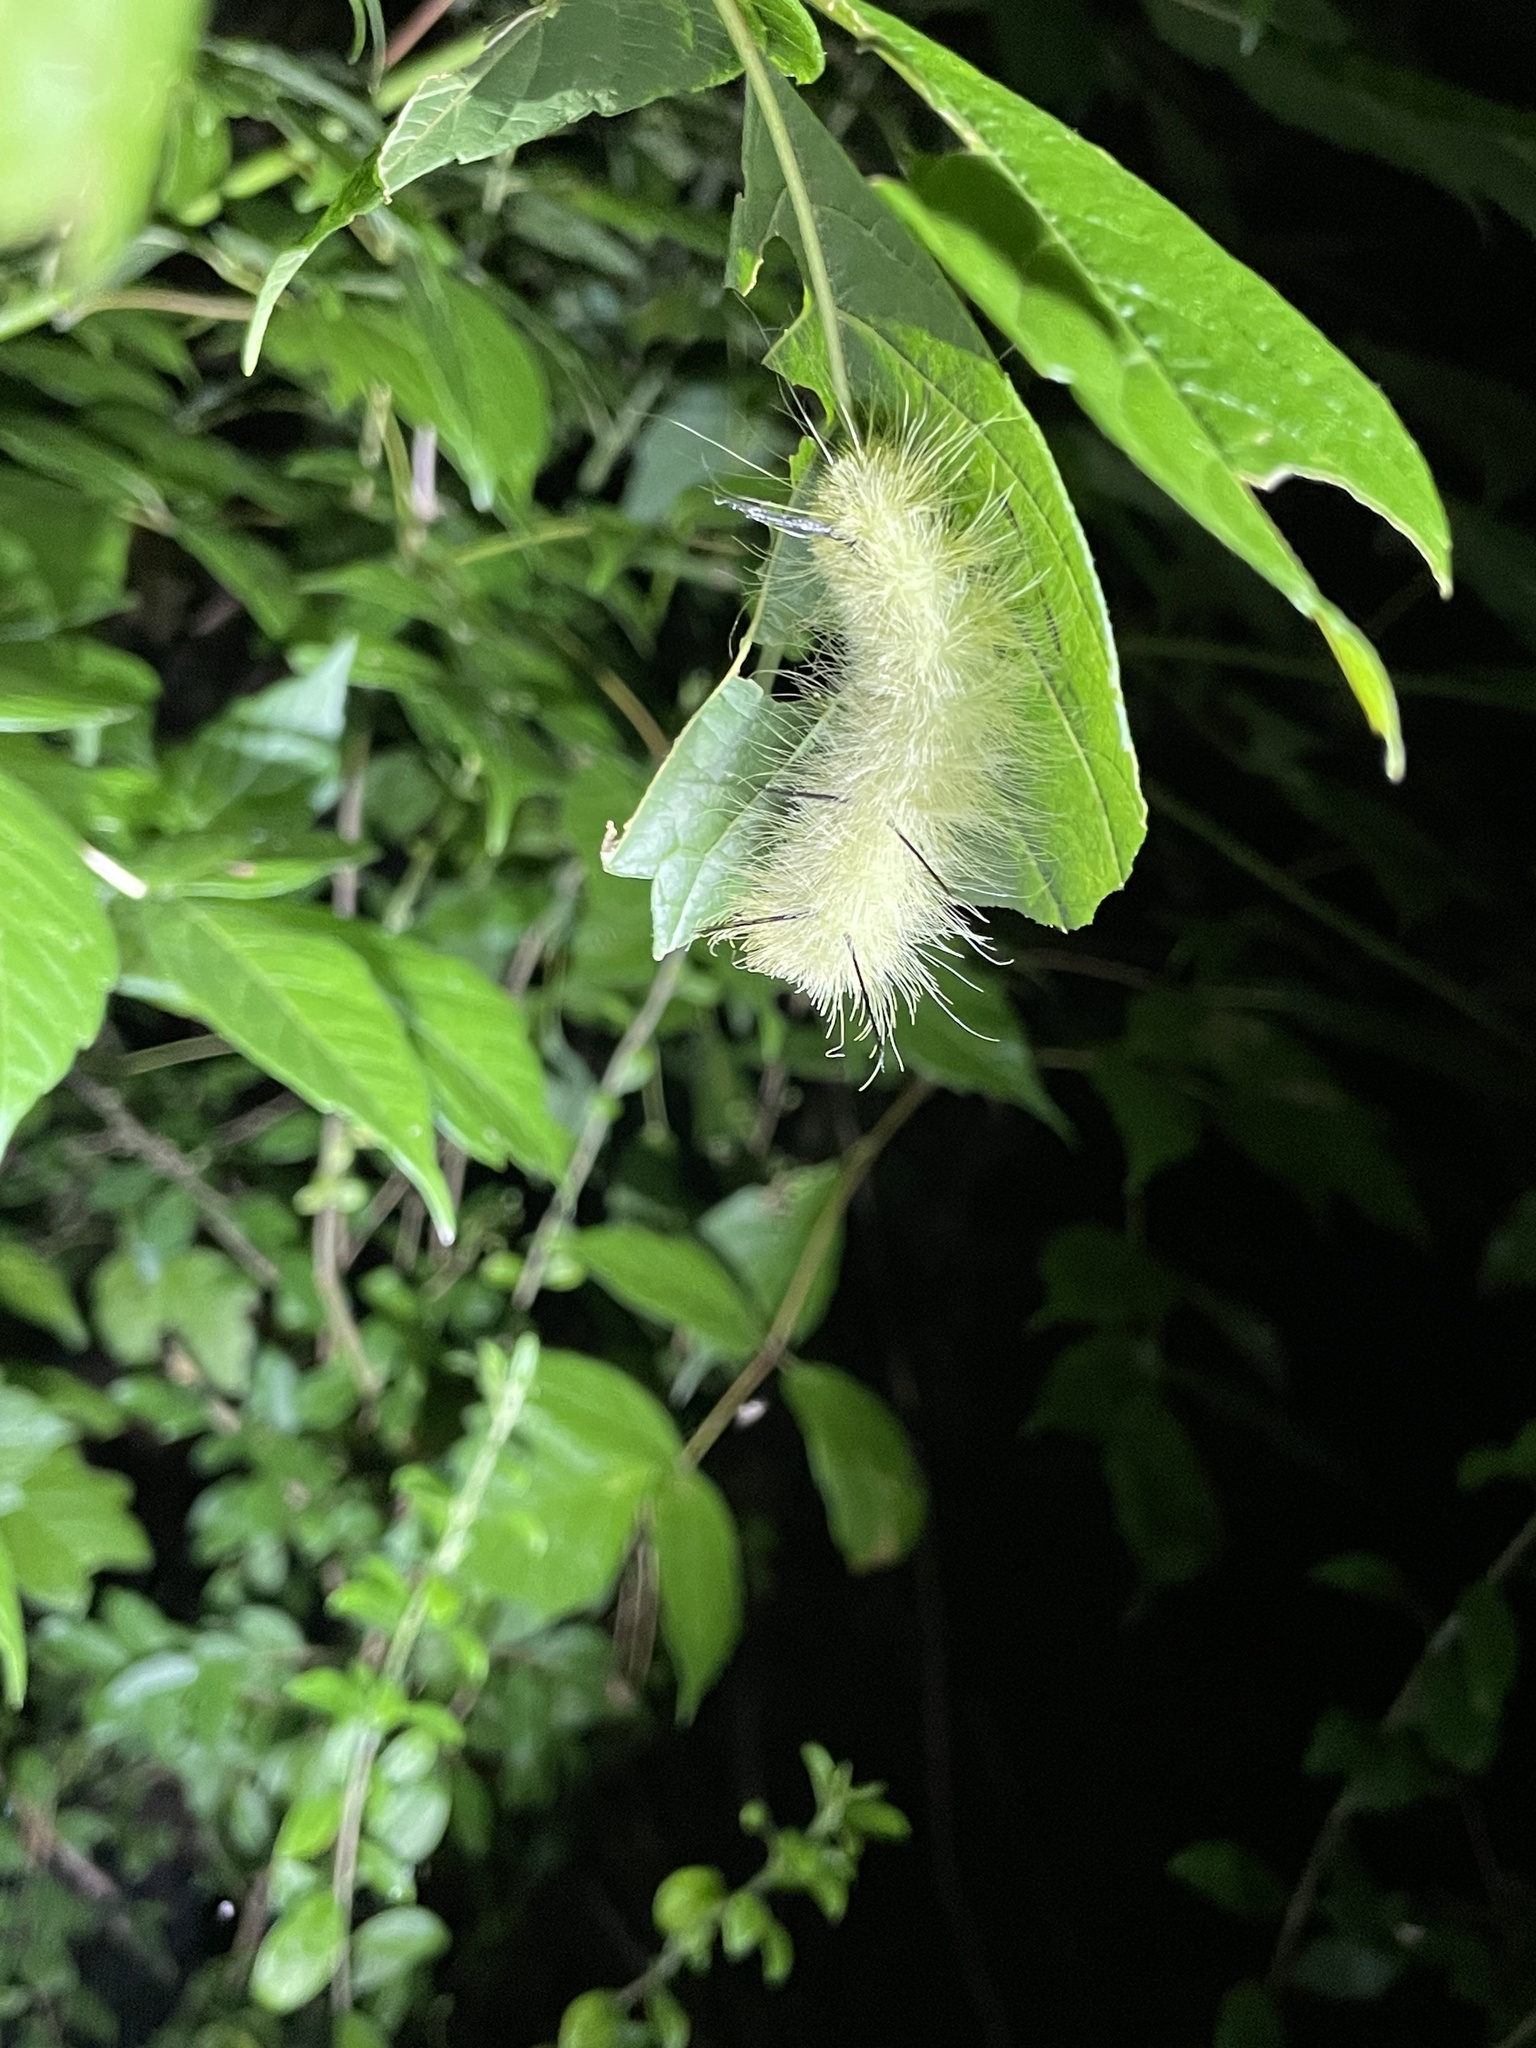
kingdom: Animalia
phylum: Arthropoda
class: Insecta
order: Lepidoptera
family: Noctuidae
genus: Acronicta
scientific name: Acronicta americana
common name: American dagger
